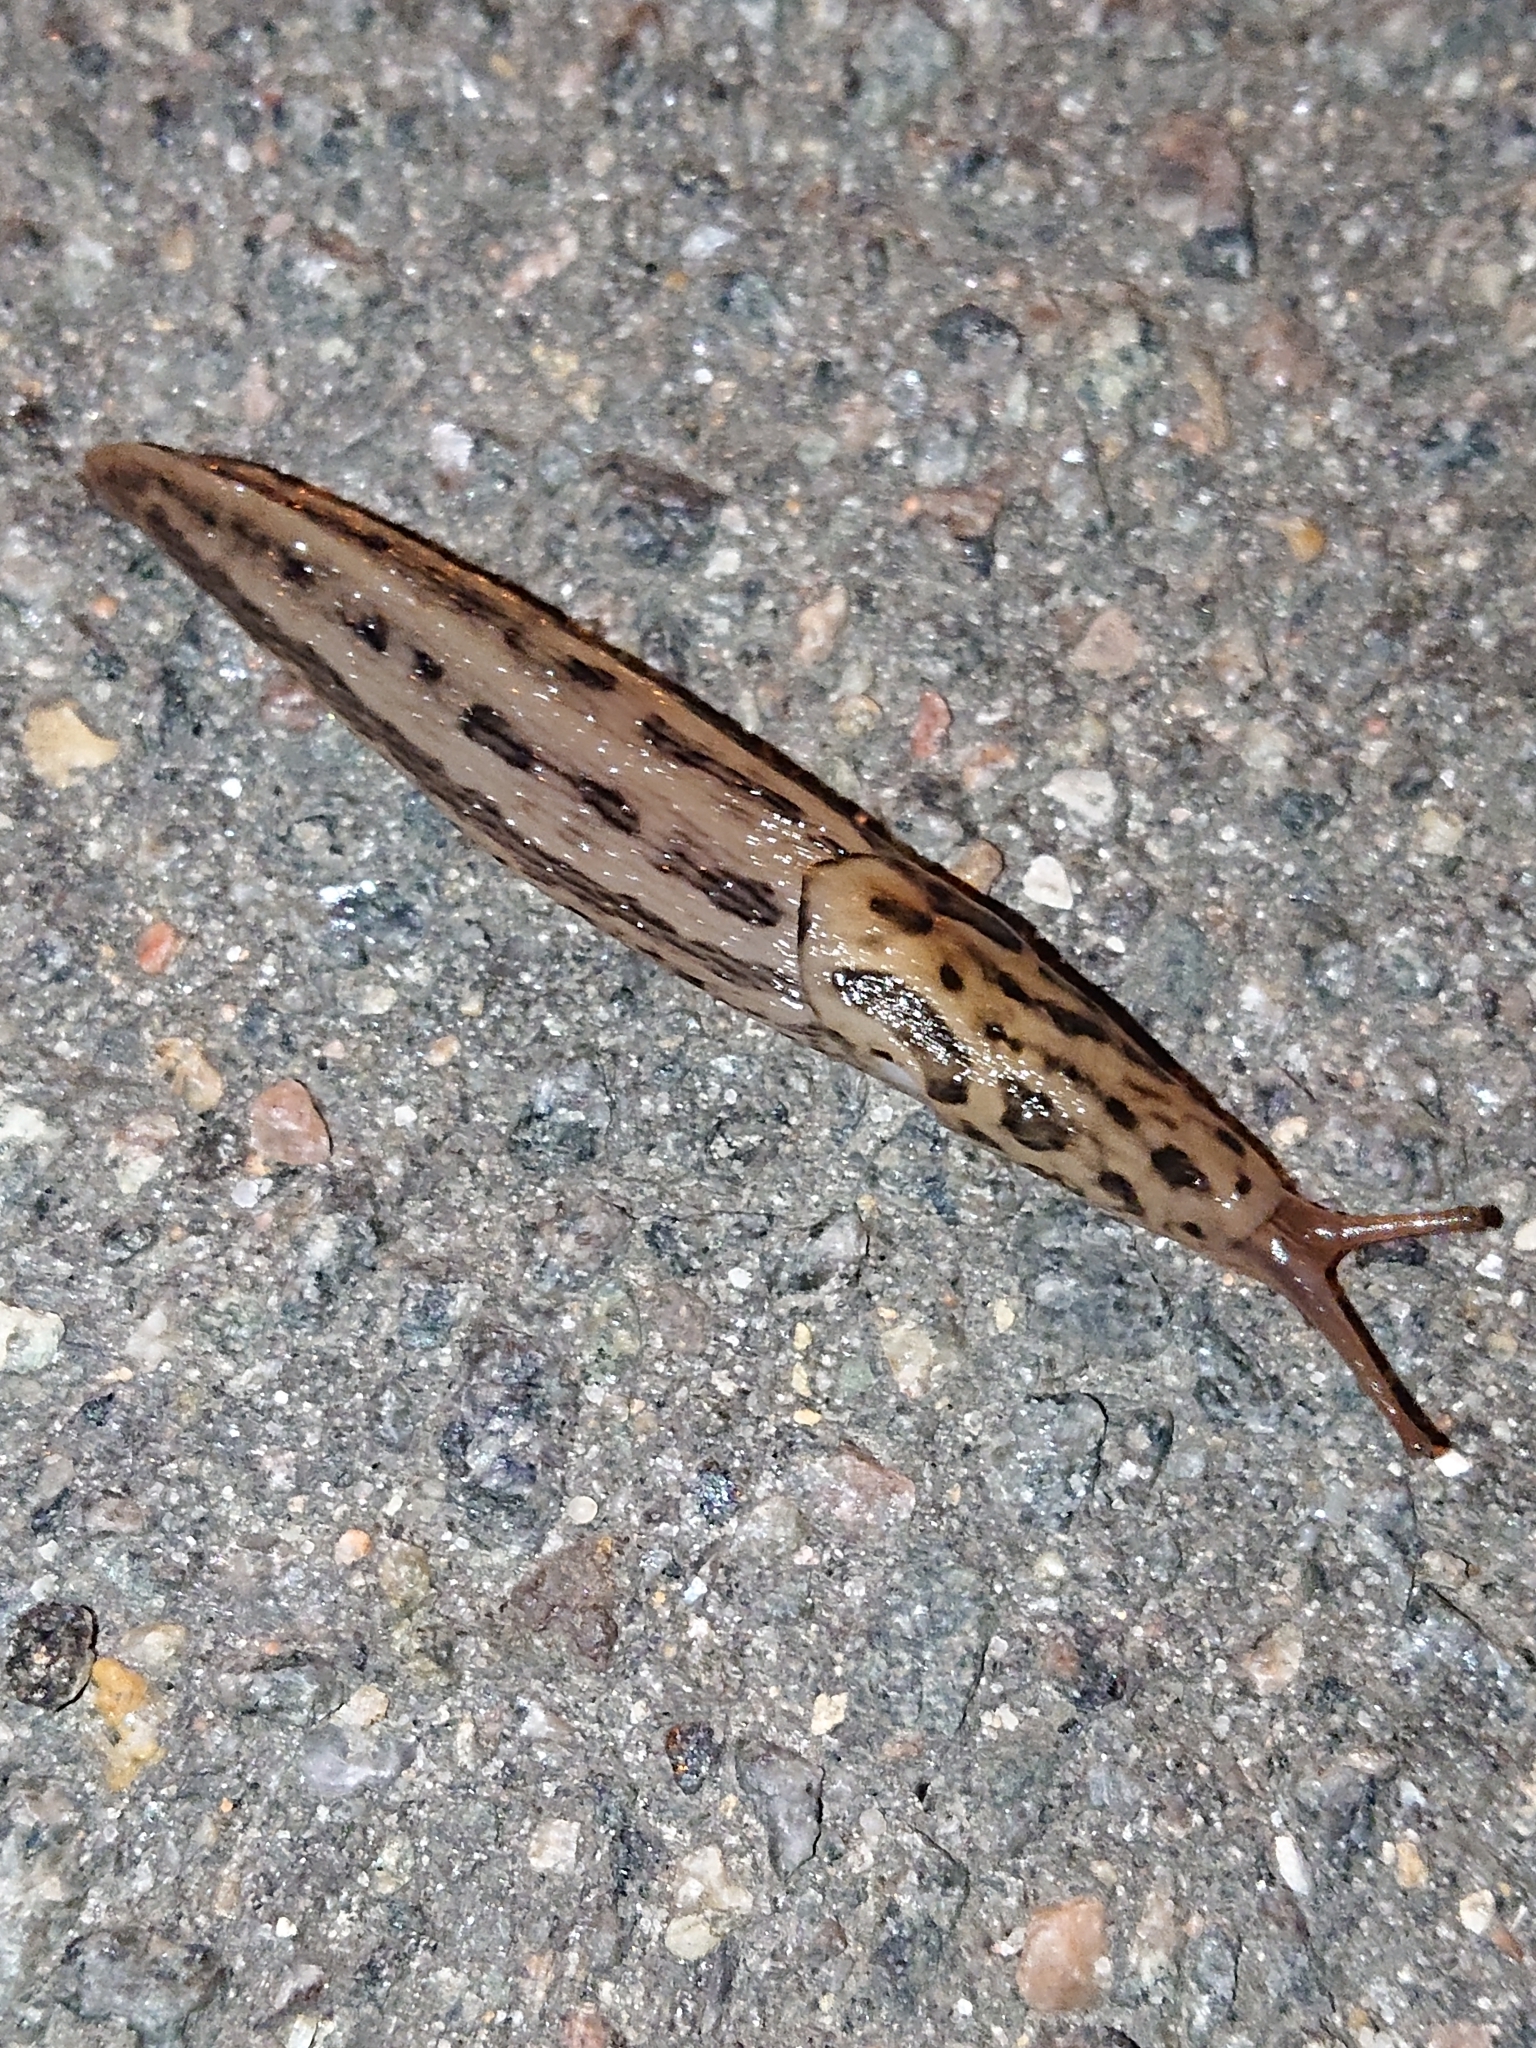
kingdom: Animalia
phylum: Mollusca
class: Gastropoda
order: Stylommatophora
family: Limacidae
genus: Limax
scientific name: Limax maximus
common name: Great grey slug
